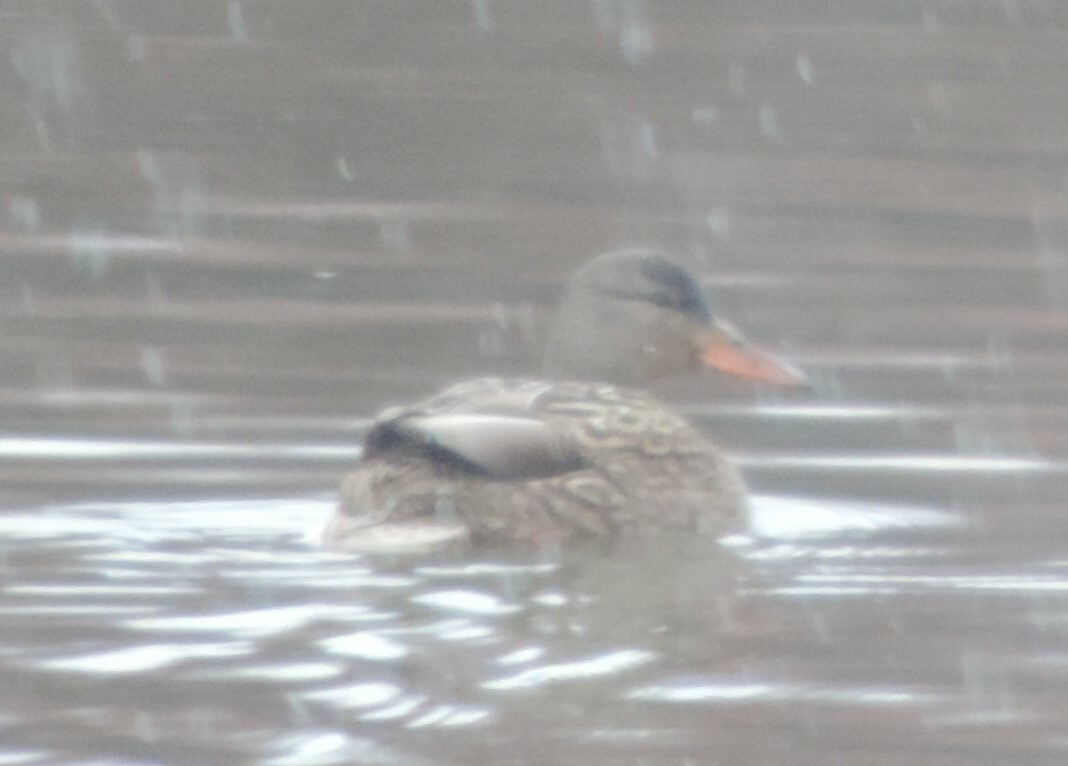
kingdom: Animalia
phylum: Chordata
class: Aves
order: Anseriformes
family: Anatidae
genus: Anas
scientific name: Anas platyrhynchos
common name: Mallard
